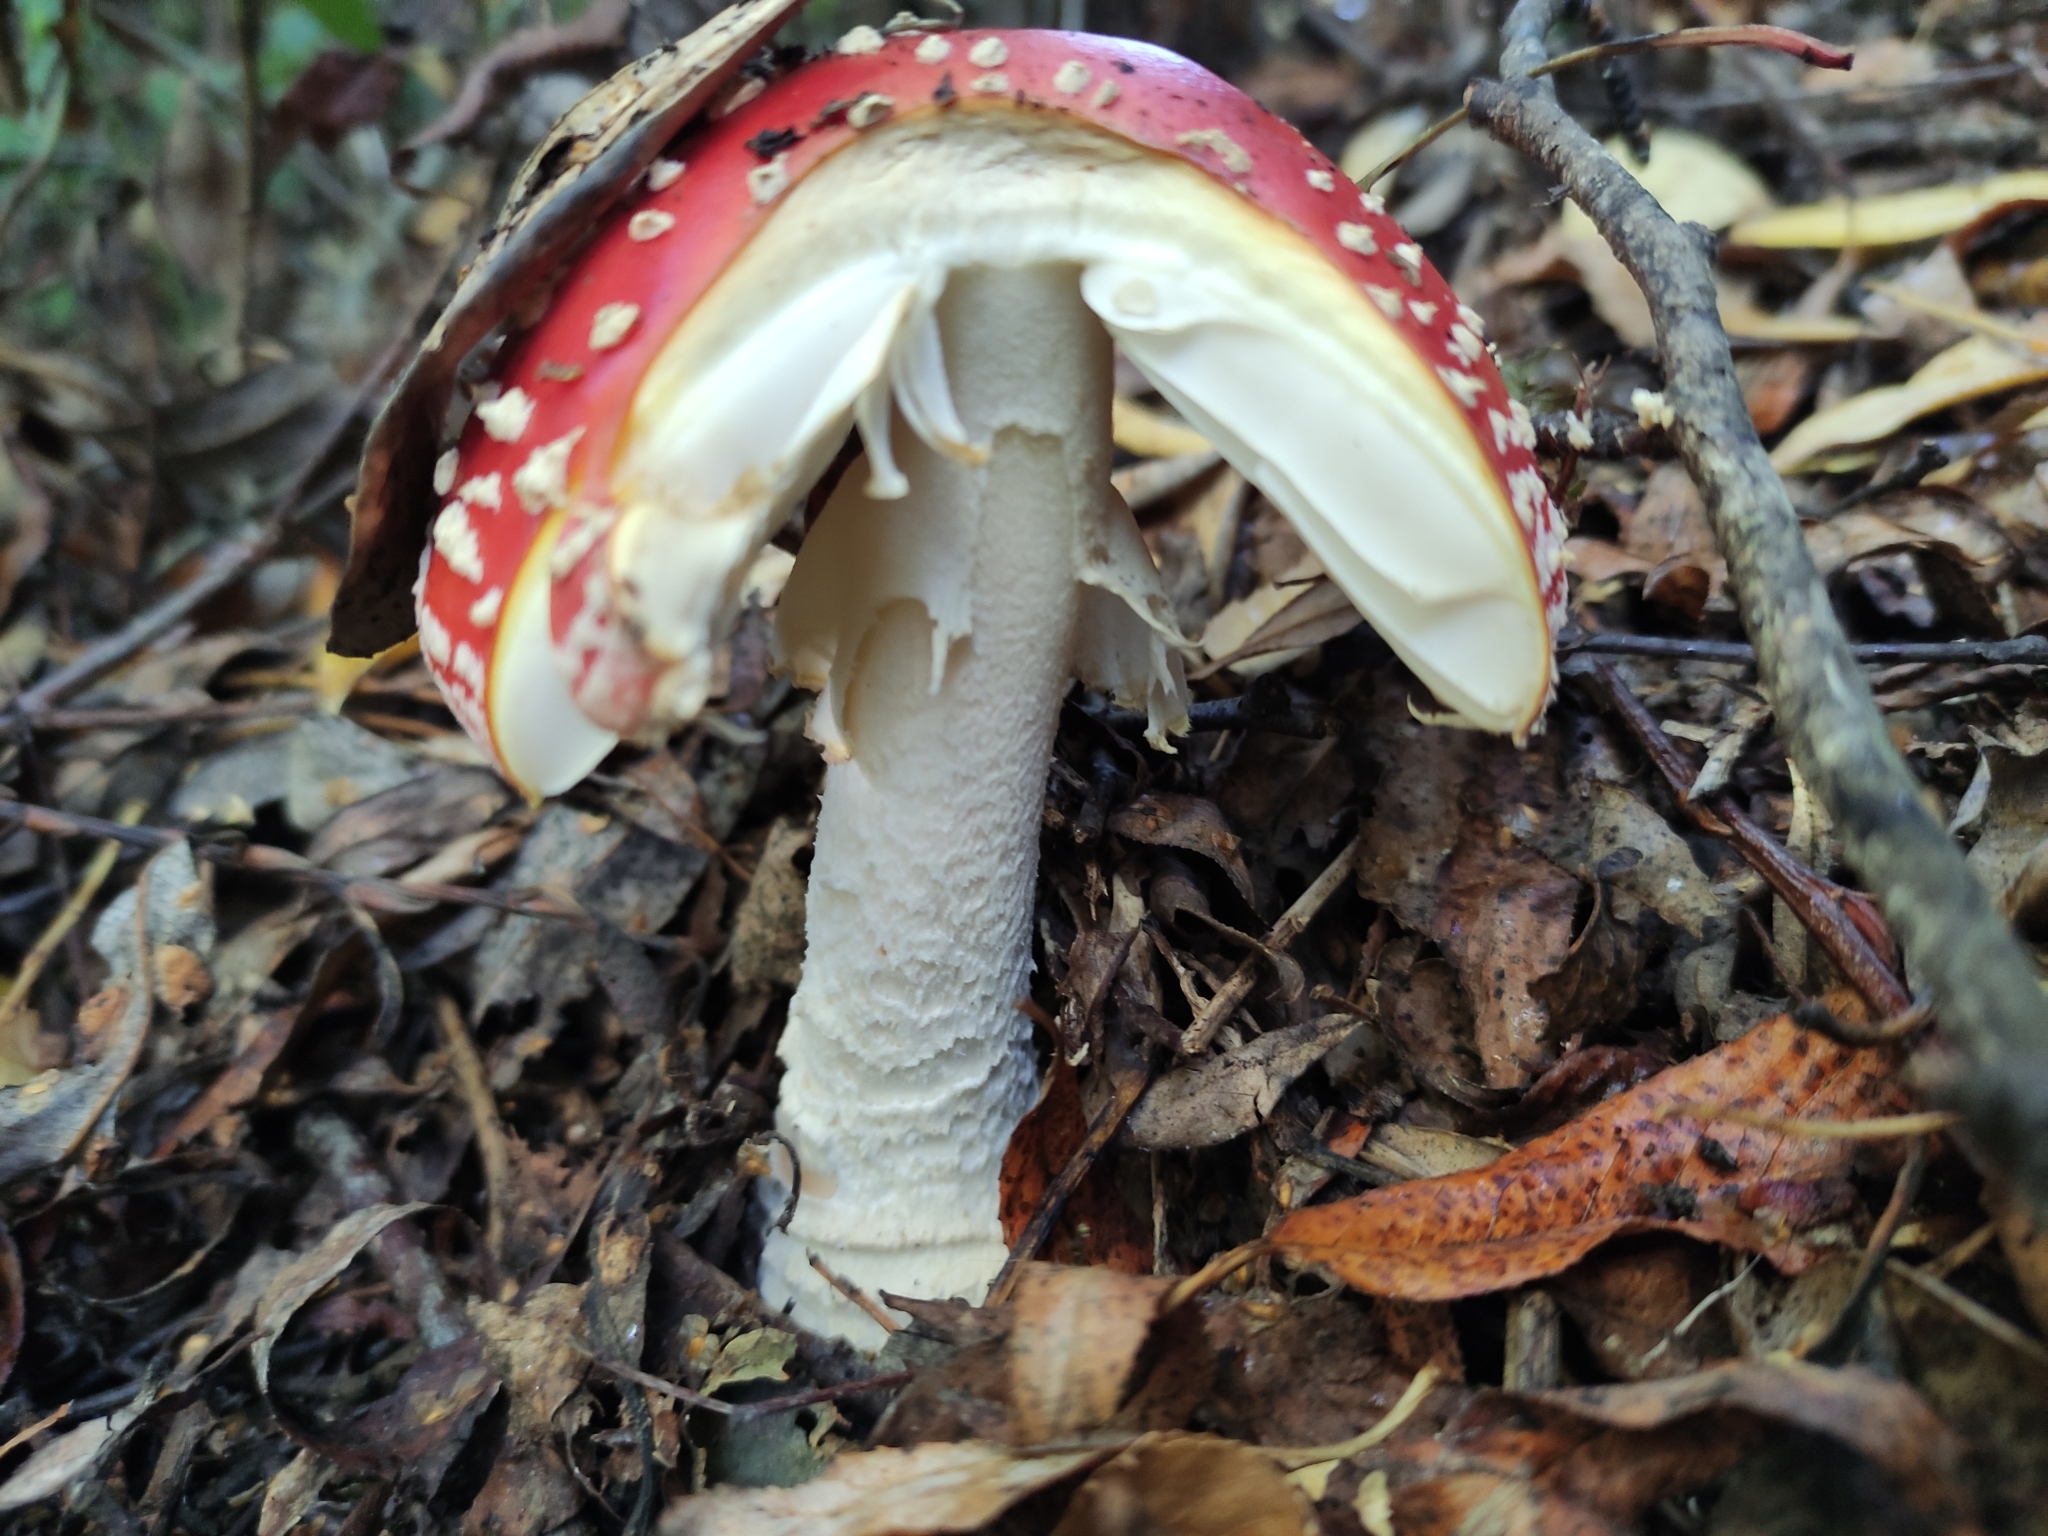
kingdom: Fungi
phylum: Basidiomycota
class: Agaricomycetes
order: Agaricales
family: Amanitaceae
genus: Amanita
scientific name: Amanita muscaria
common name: Fly agaric
